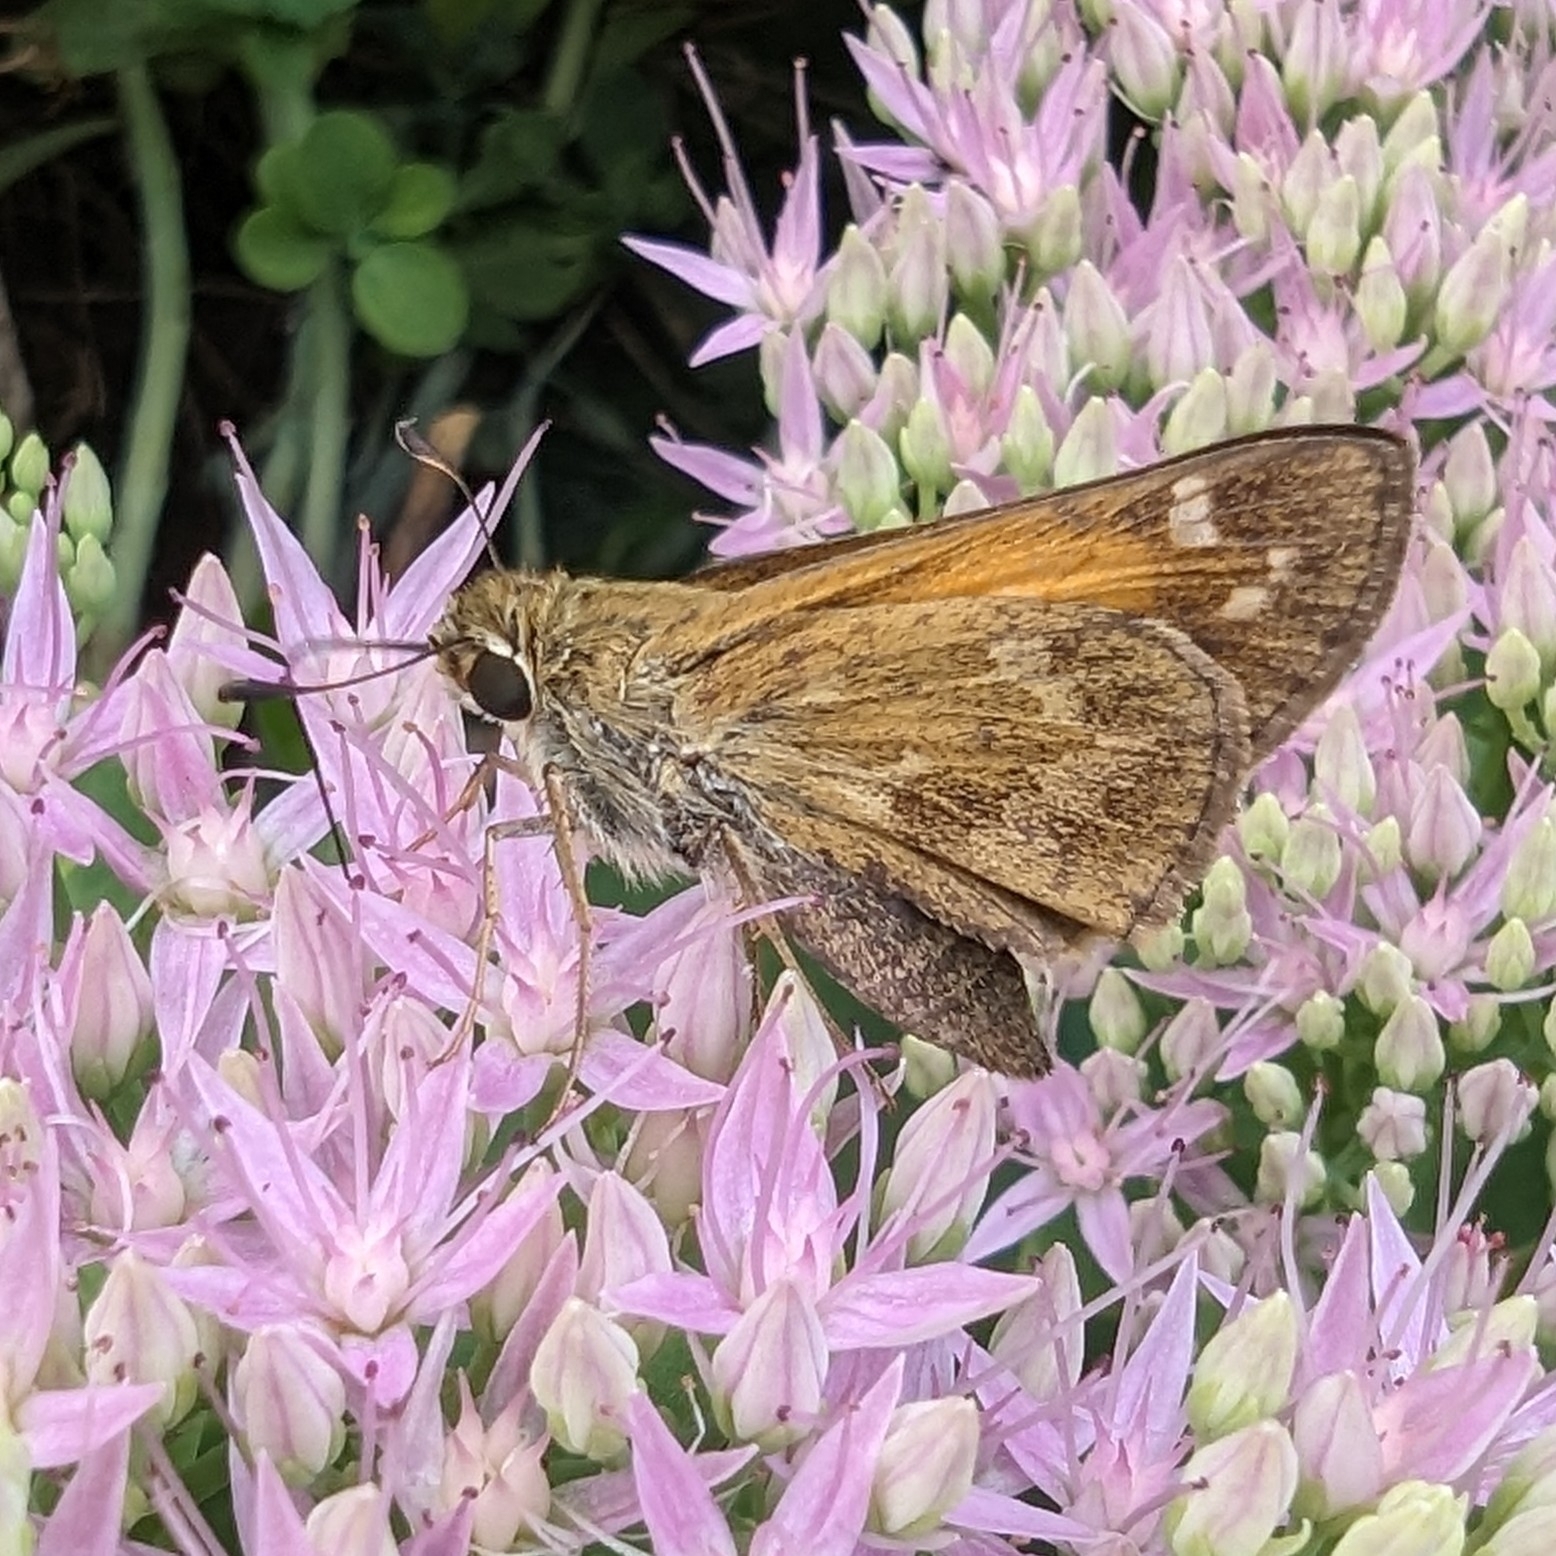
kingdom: Animalia
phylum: Arthropoda
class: Insecta
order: Lepidoptera
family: Hesperiidae
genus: Atalopedes
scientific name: Atalopedes
